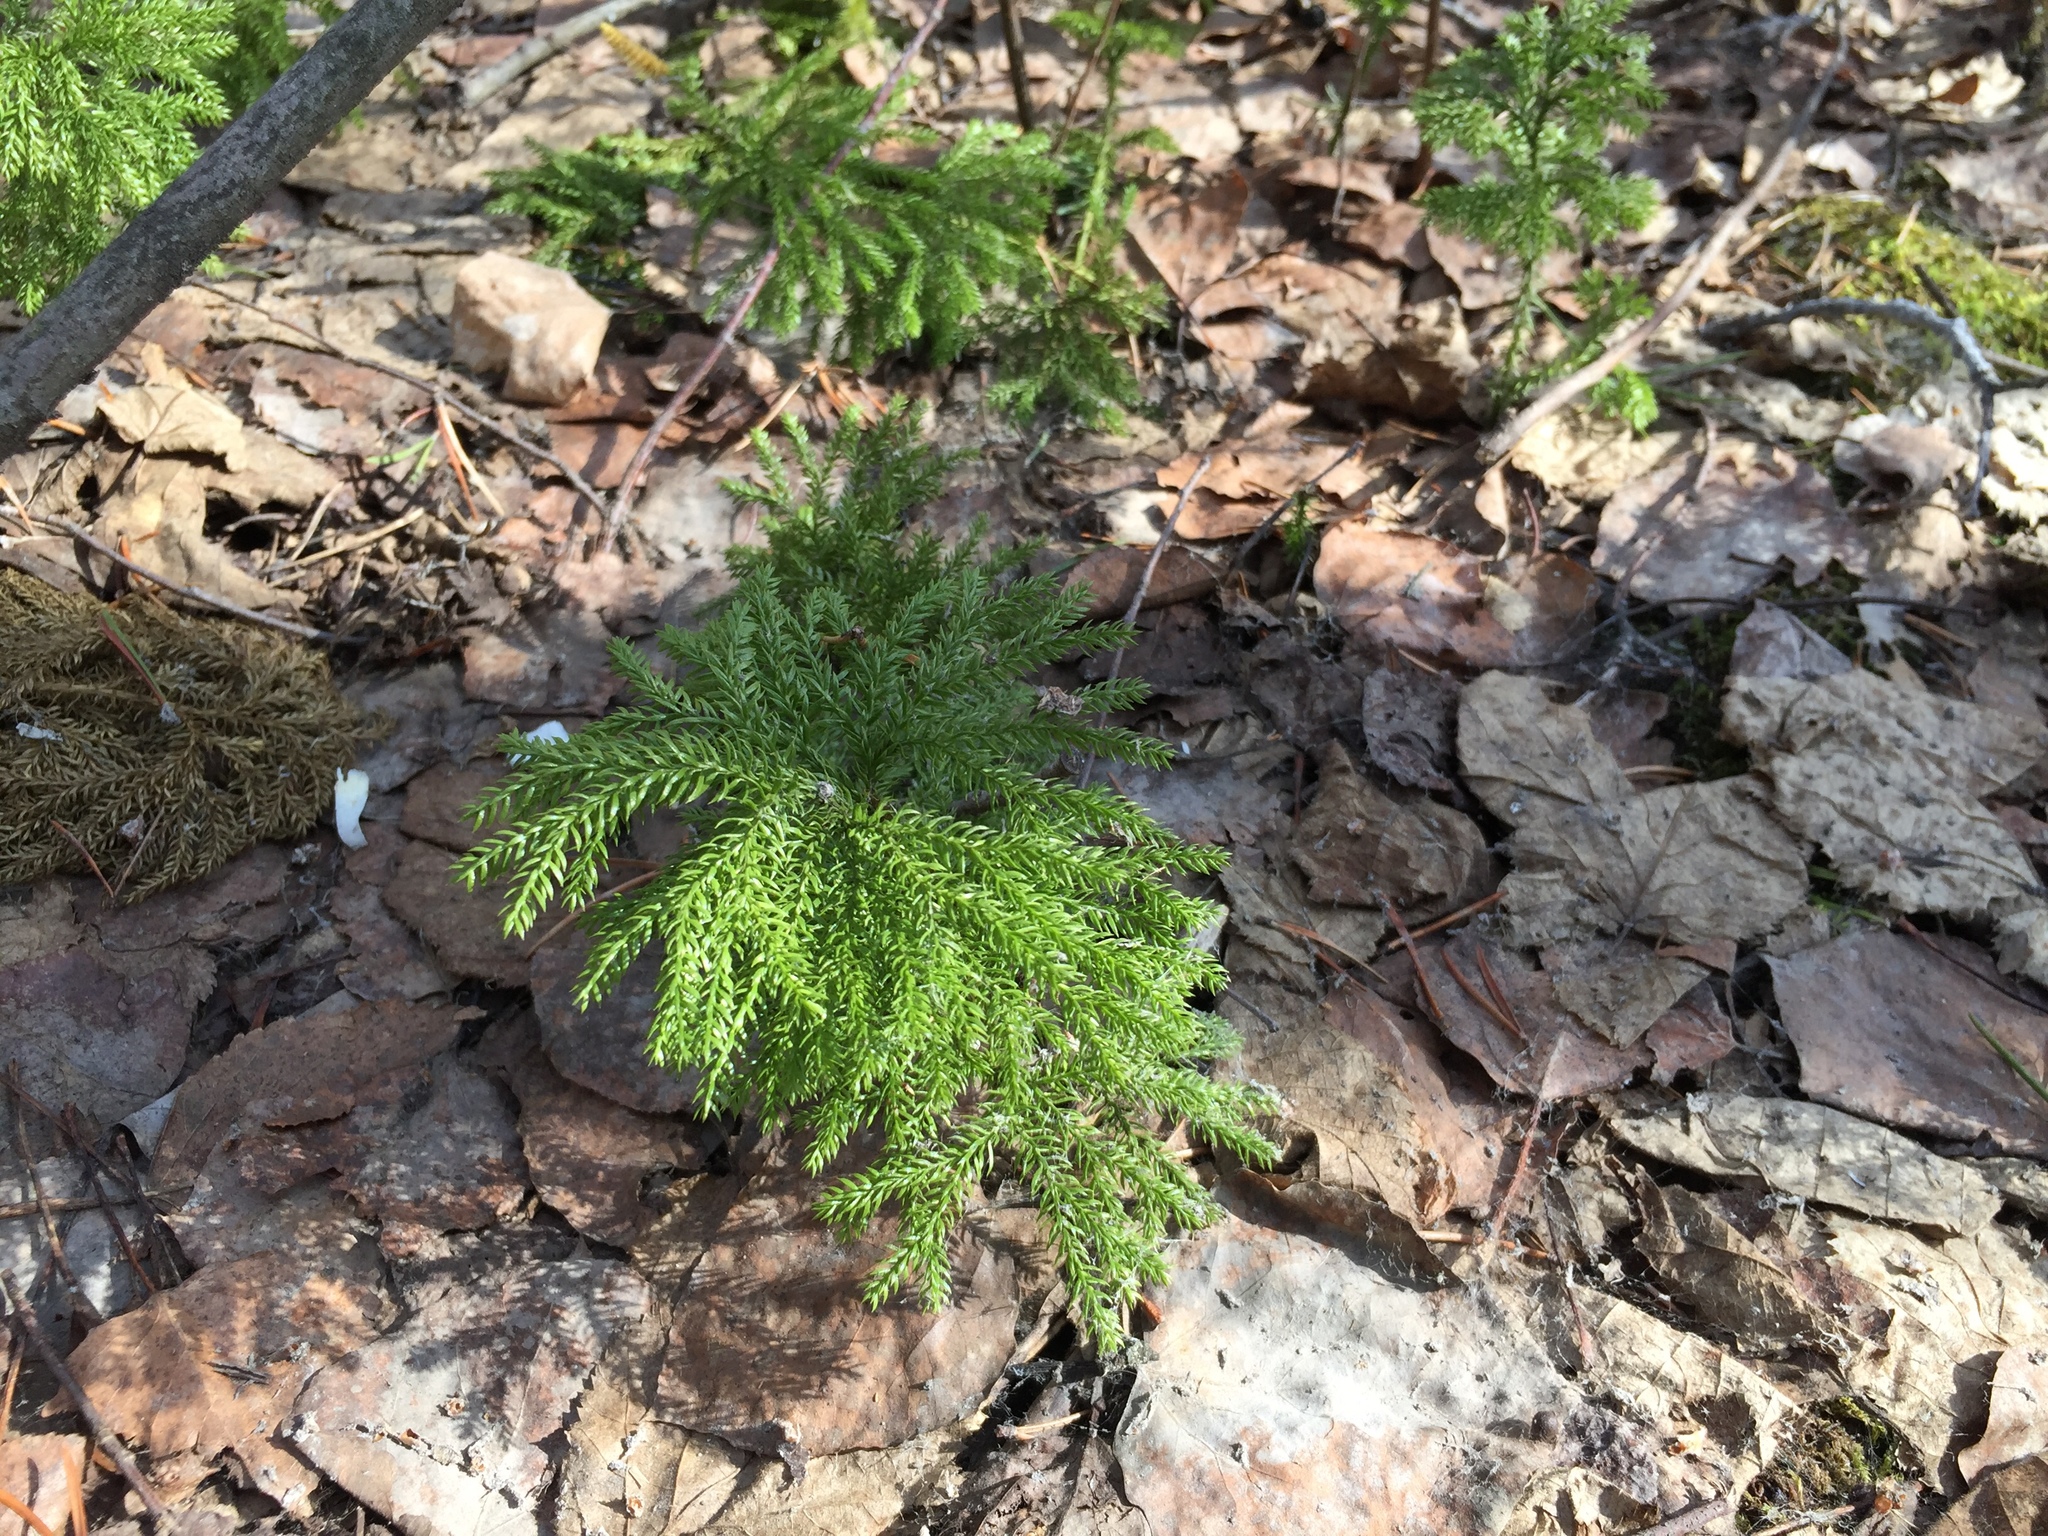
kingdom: Plantae
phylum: Tracheophyta
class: Lycopodiopsida
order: Lycopodiales
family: Lycopodiaceae
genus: Dendrolycopodium
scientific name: Dendrolycopodium dendroideum
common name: Northern tree-clubmoss
